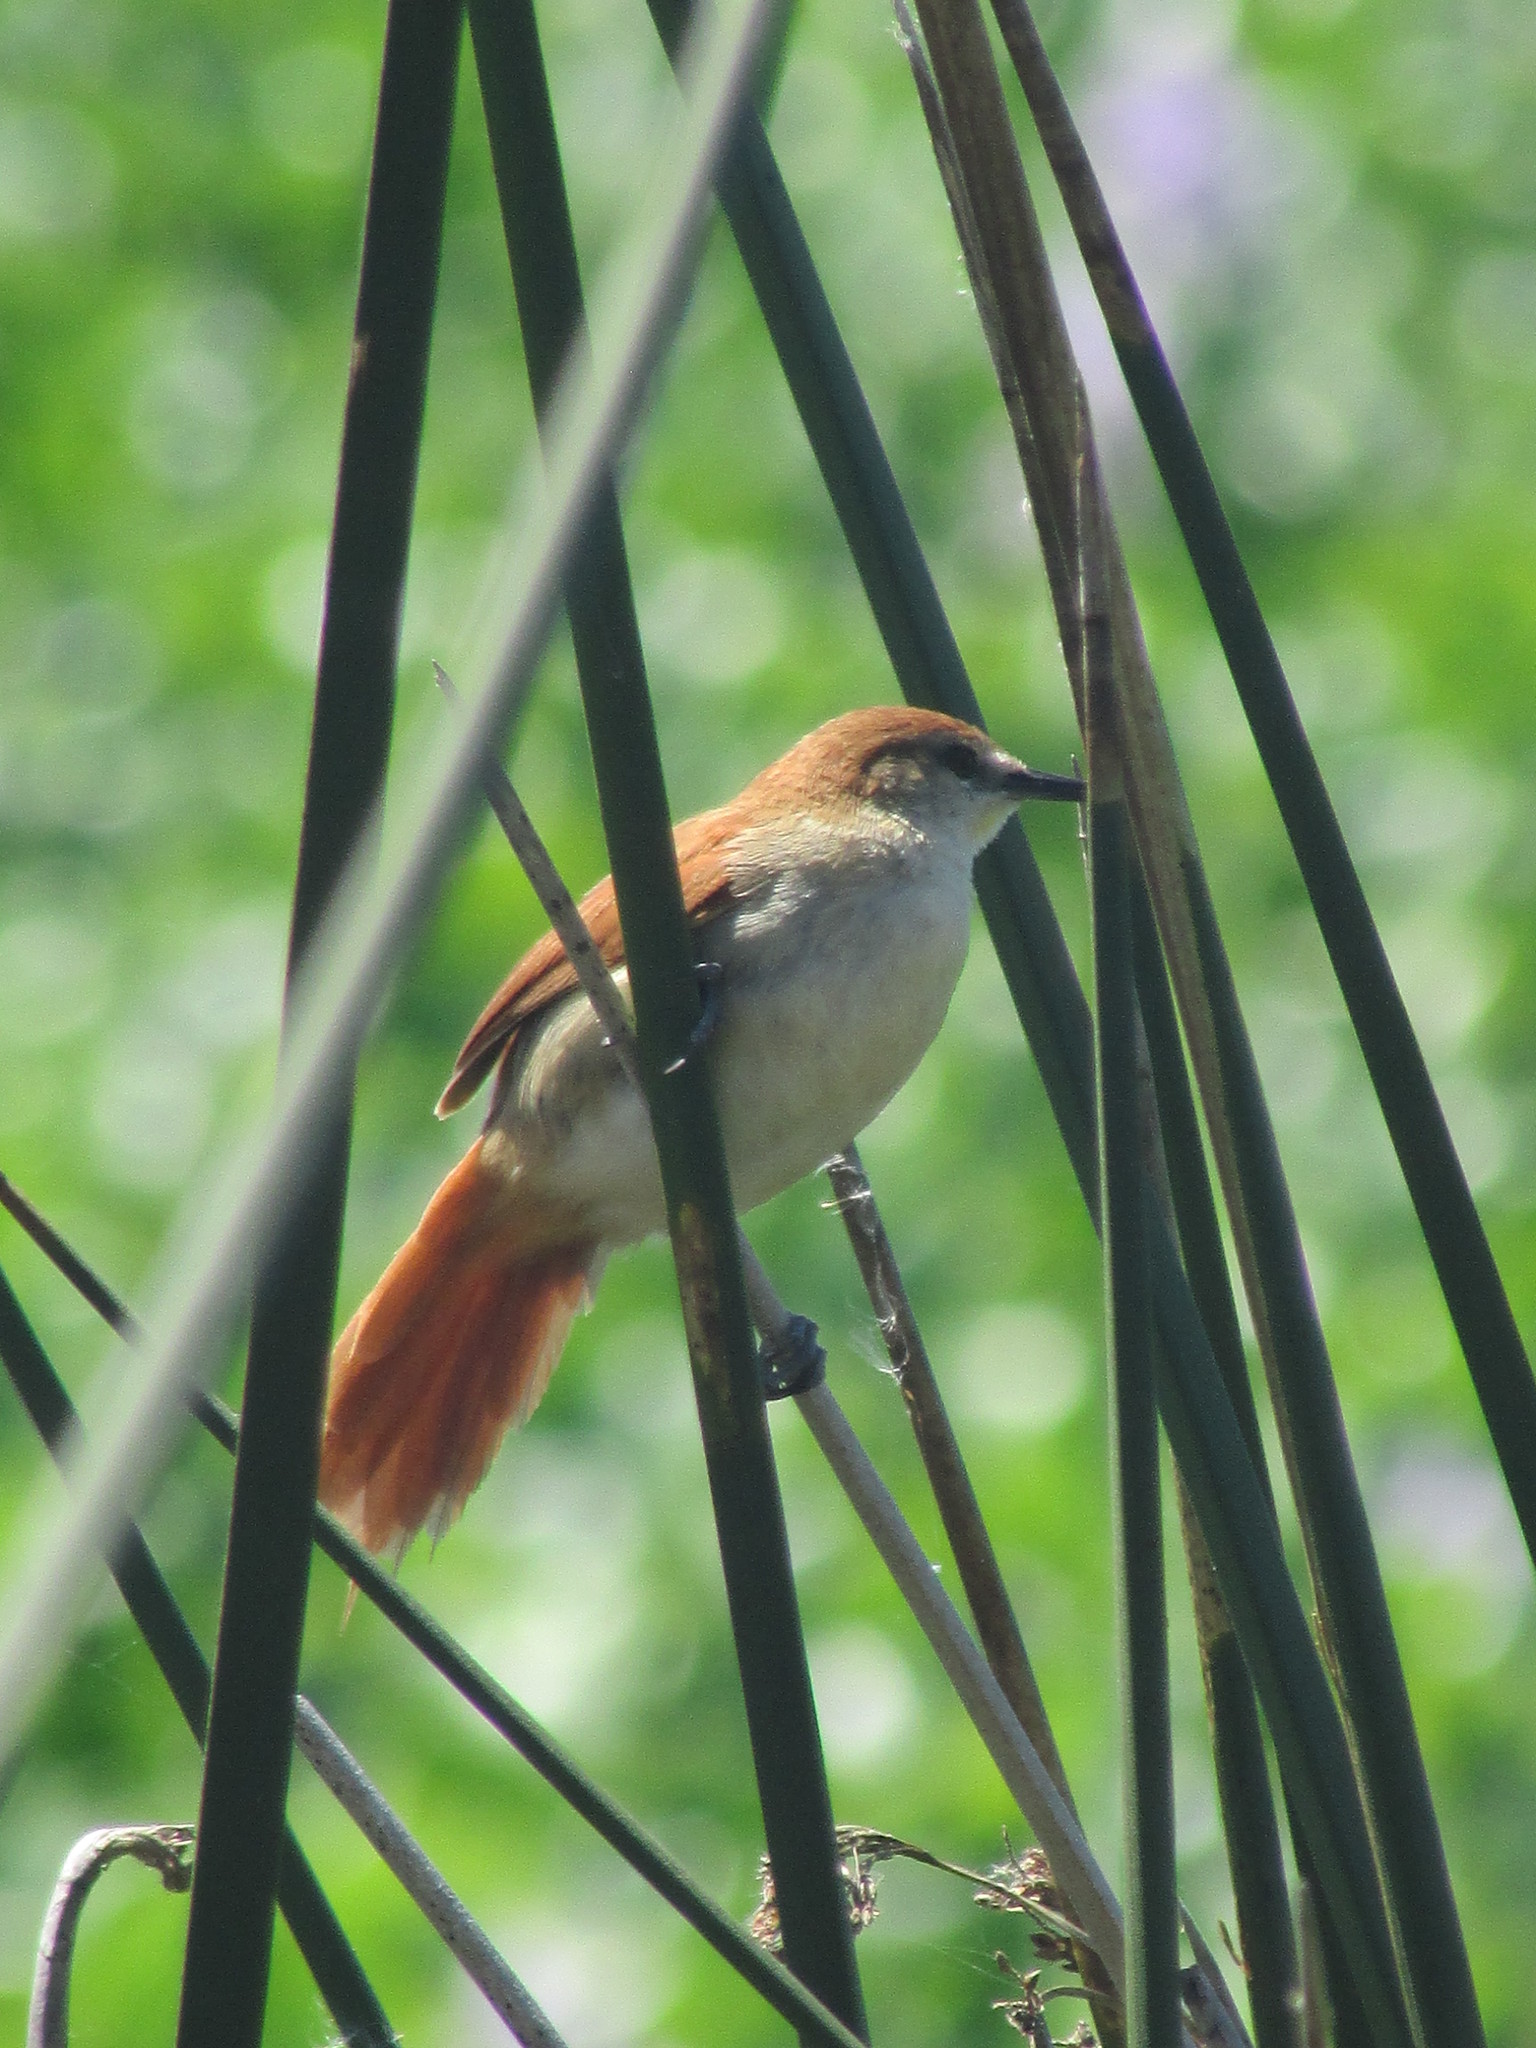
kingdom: Animalia
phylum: Chordata
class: Aves
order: Passeriformes
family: Furnariidae
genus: Certhiaxis
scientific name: Certhiaxis cinnamomeus
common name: Yellow-chinned spinetail
